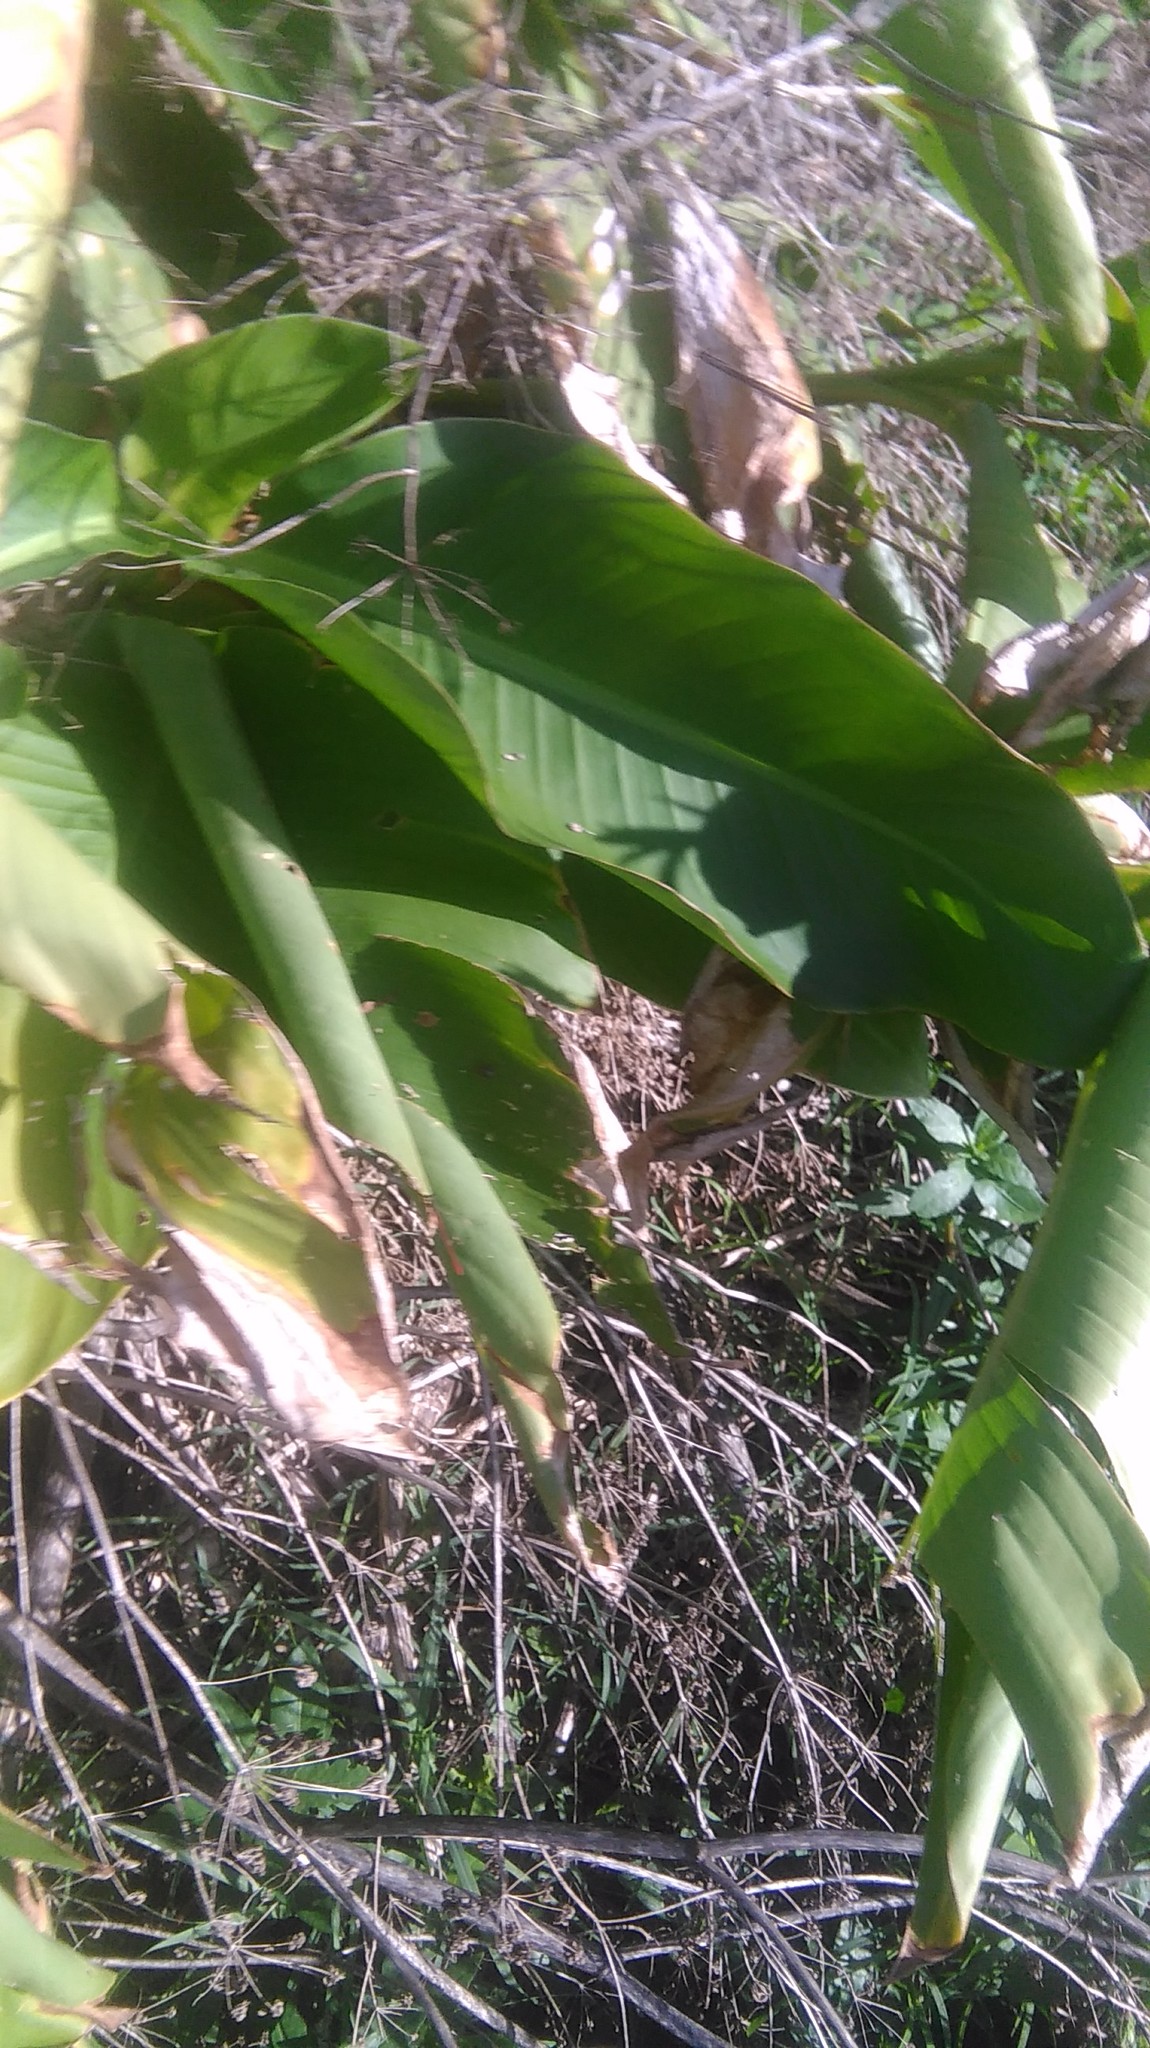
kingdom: Plantae
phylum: Tracheophyta
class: Liliopsida
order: Zingiberales
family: Cannaceae
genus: Canna
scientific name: Canna indica
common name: Indian shot
